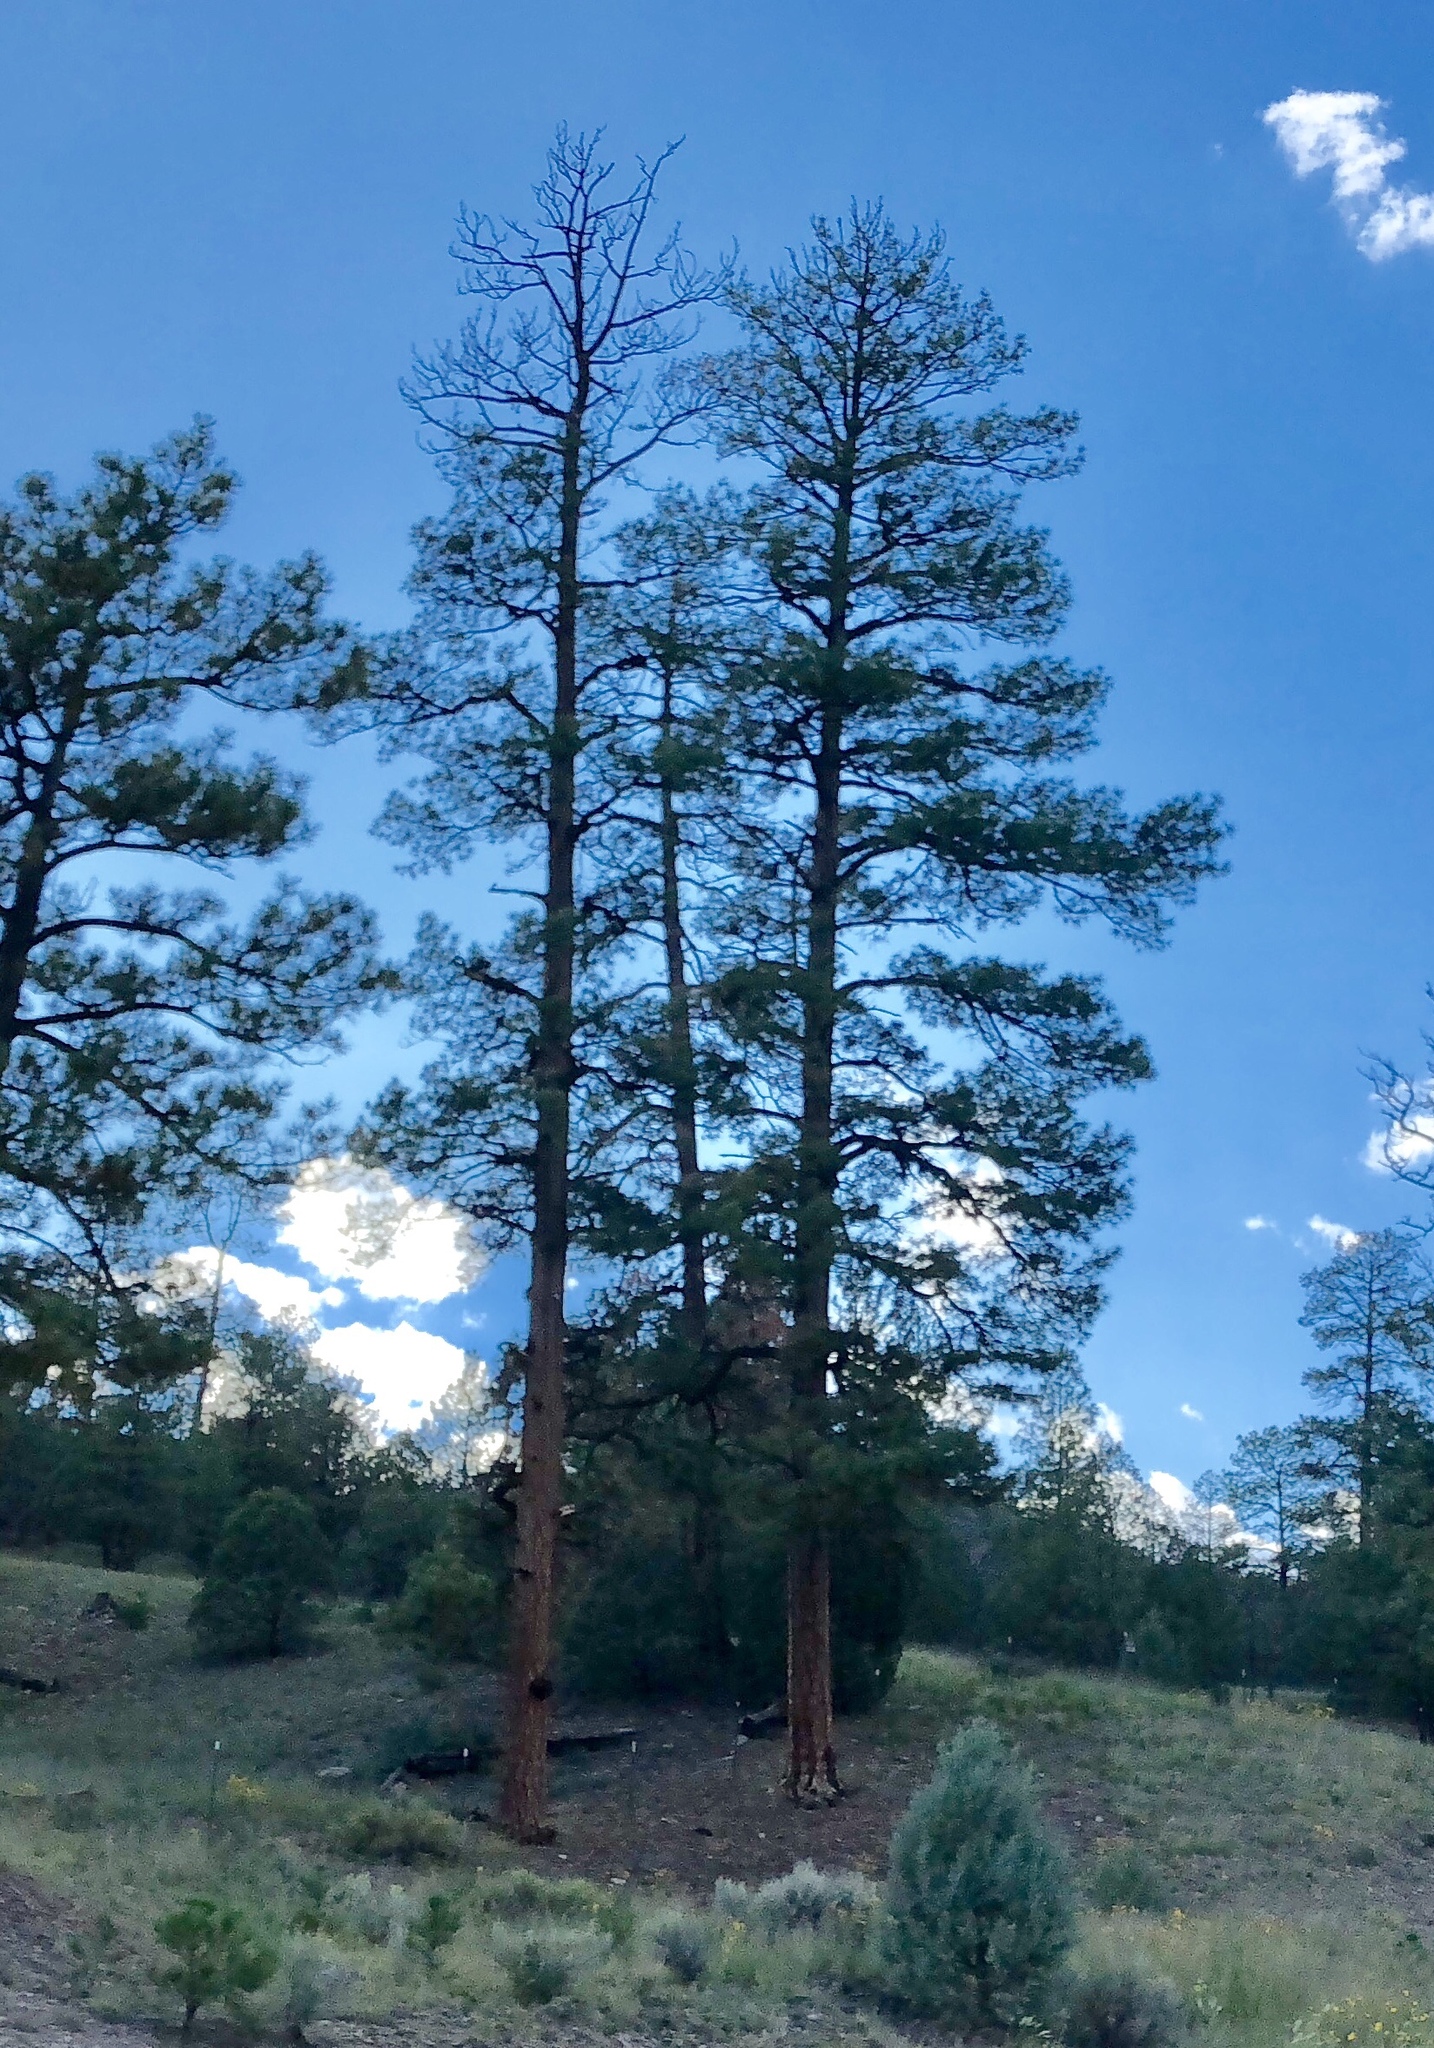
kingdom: Plantae
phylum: Tracheophyta
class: Pinopsida
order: Pinales
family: Pinaceae
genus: Pinus
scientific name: Pinus ponderosa
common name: Western yellow-pine
